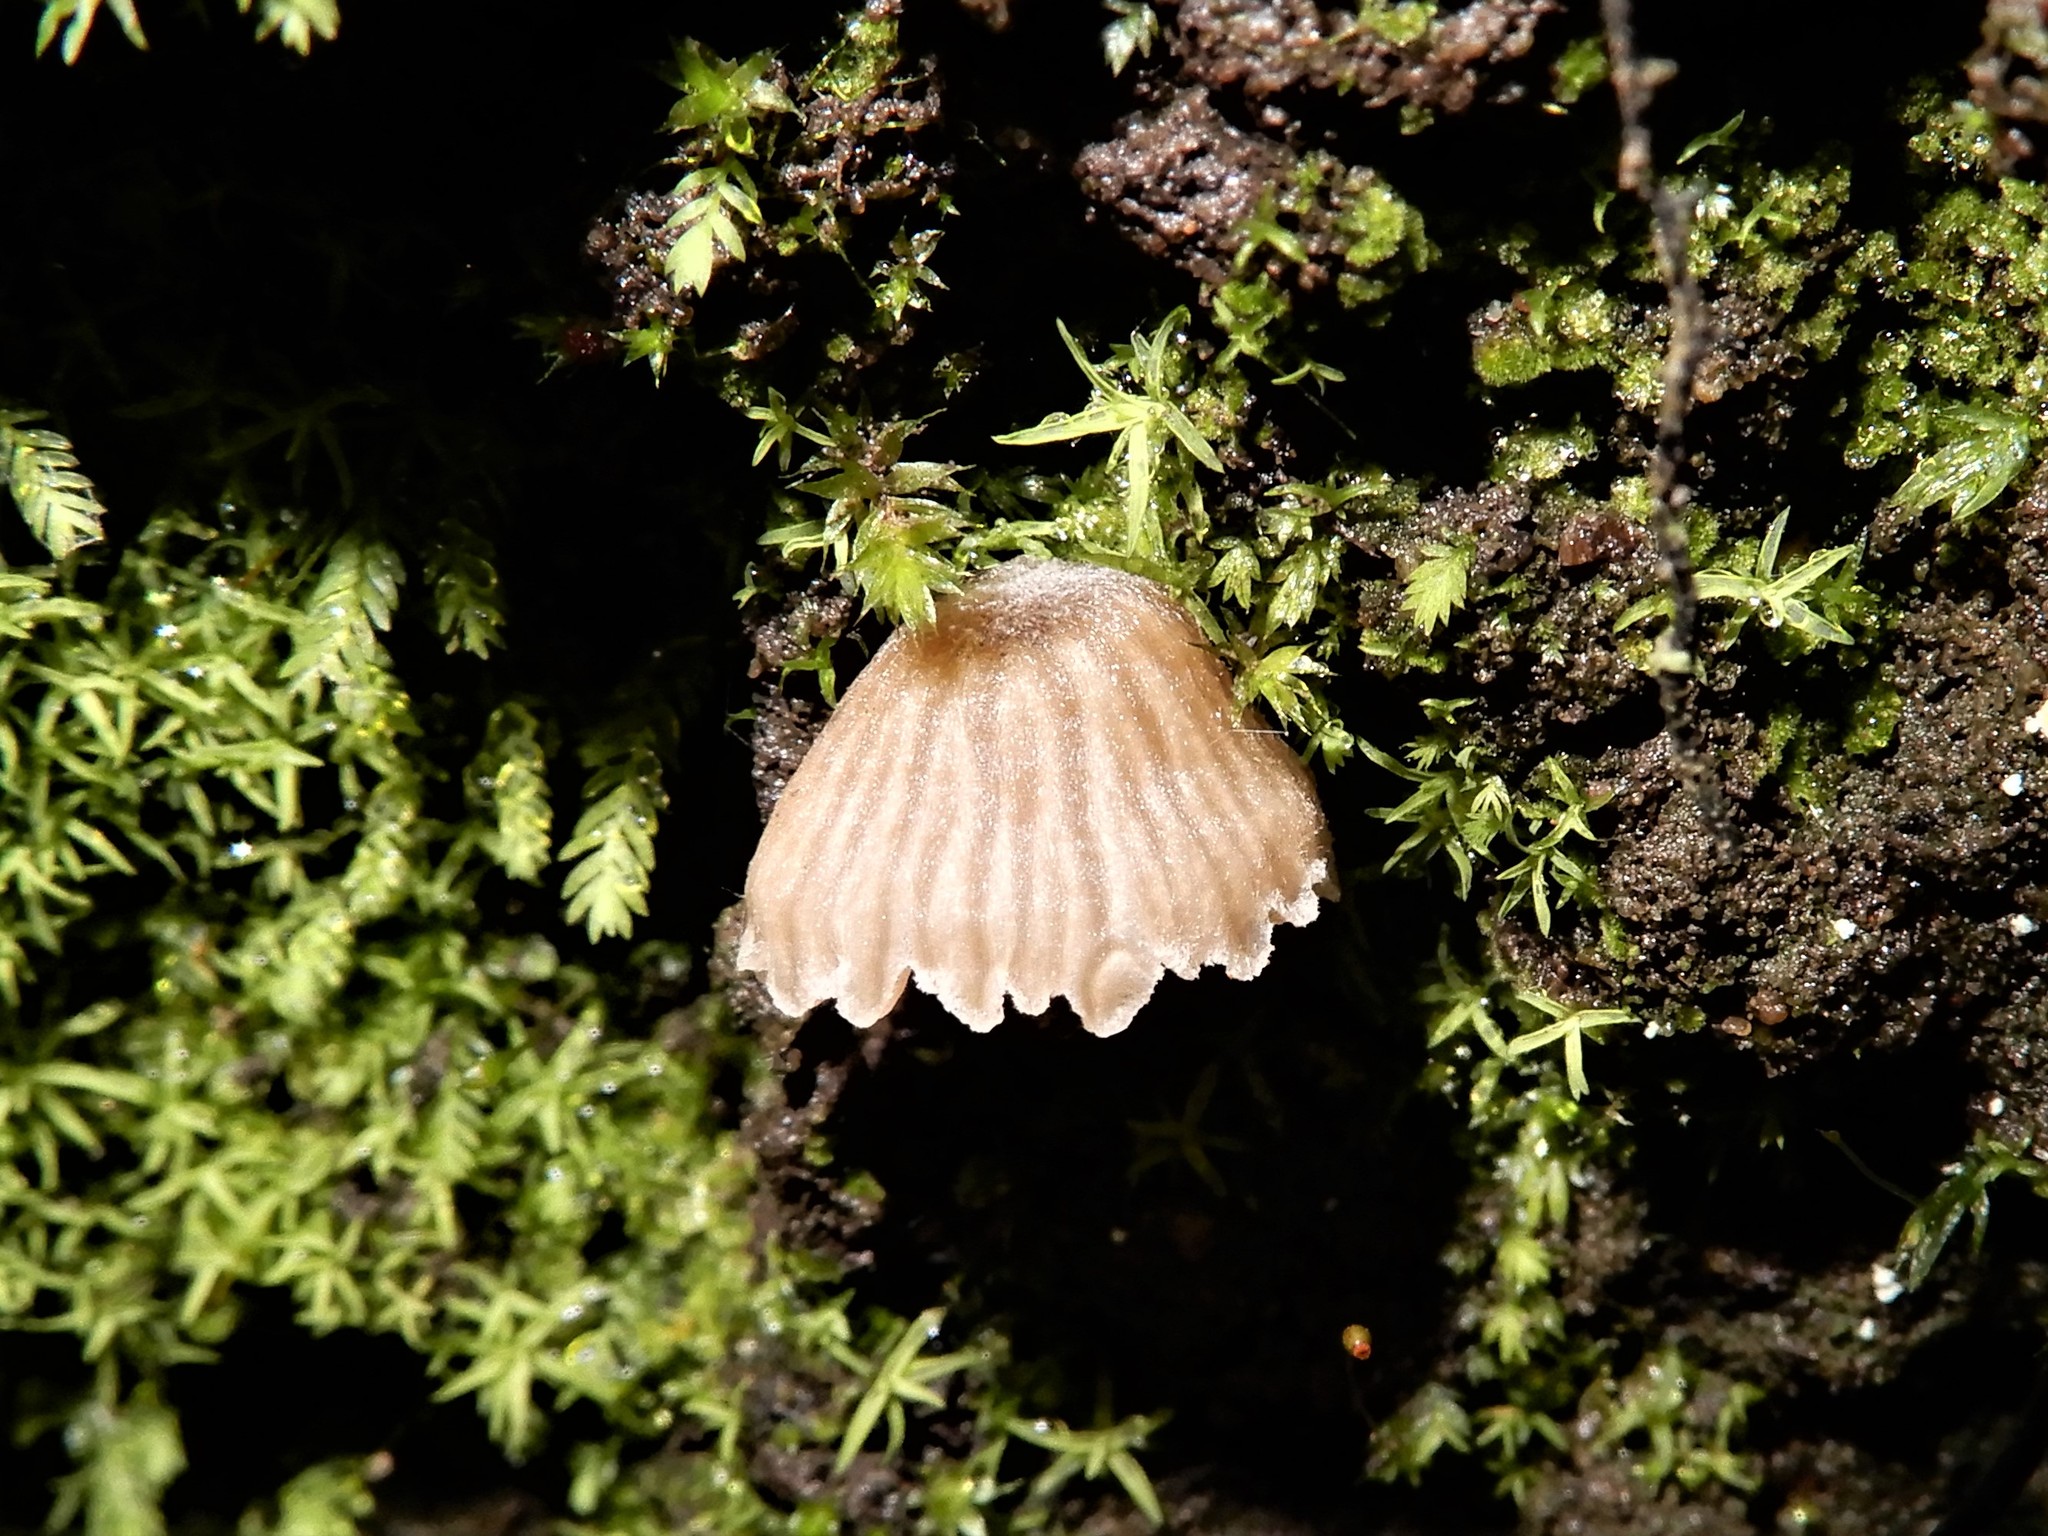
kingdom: Fungi
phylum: Basidiomycota
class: Agaricomycetes
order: Agaricales
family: Entolomataceae
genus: Entoloma
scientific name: Entoloma
